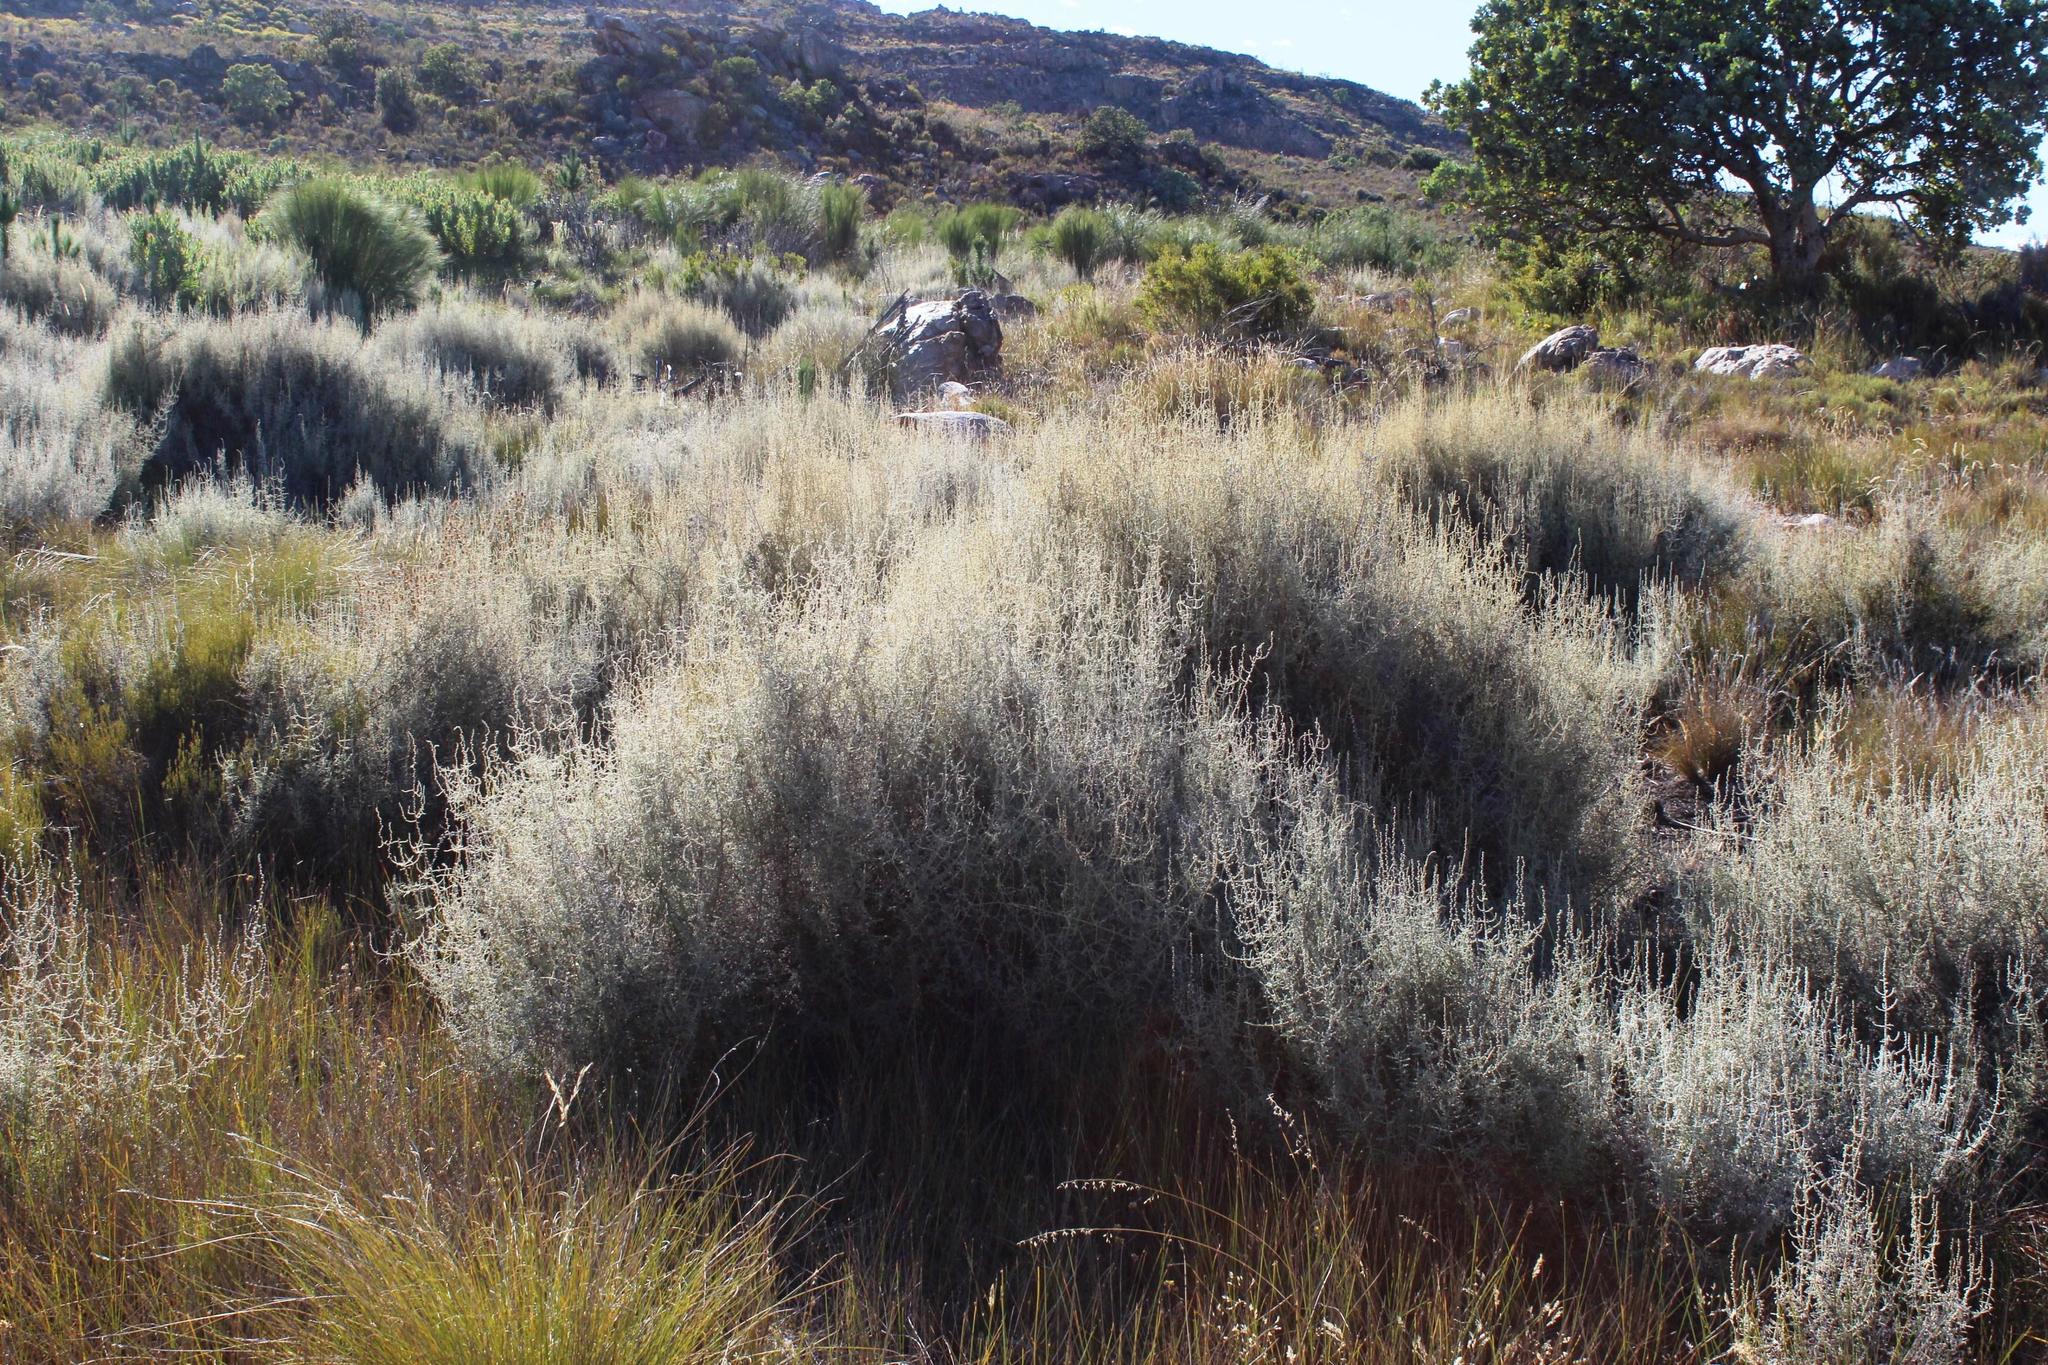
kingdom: Plantae
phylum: Tracheophyta
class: Magnoliopsida
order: Asterales
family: Asteraceae
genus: Seriphium
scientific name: Seriphium plumosum
